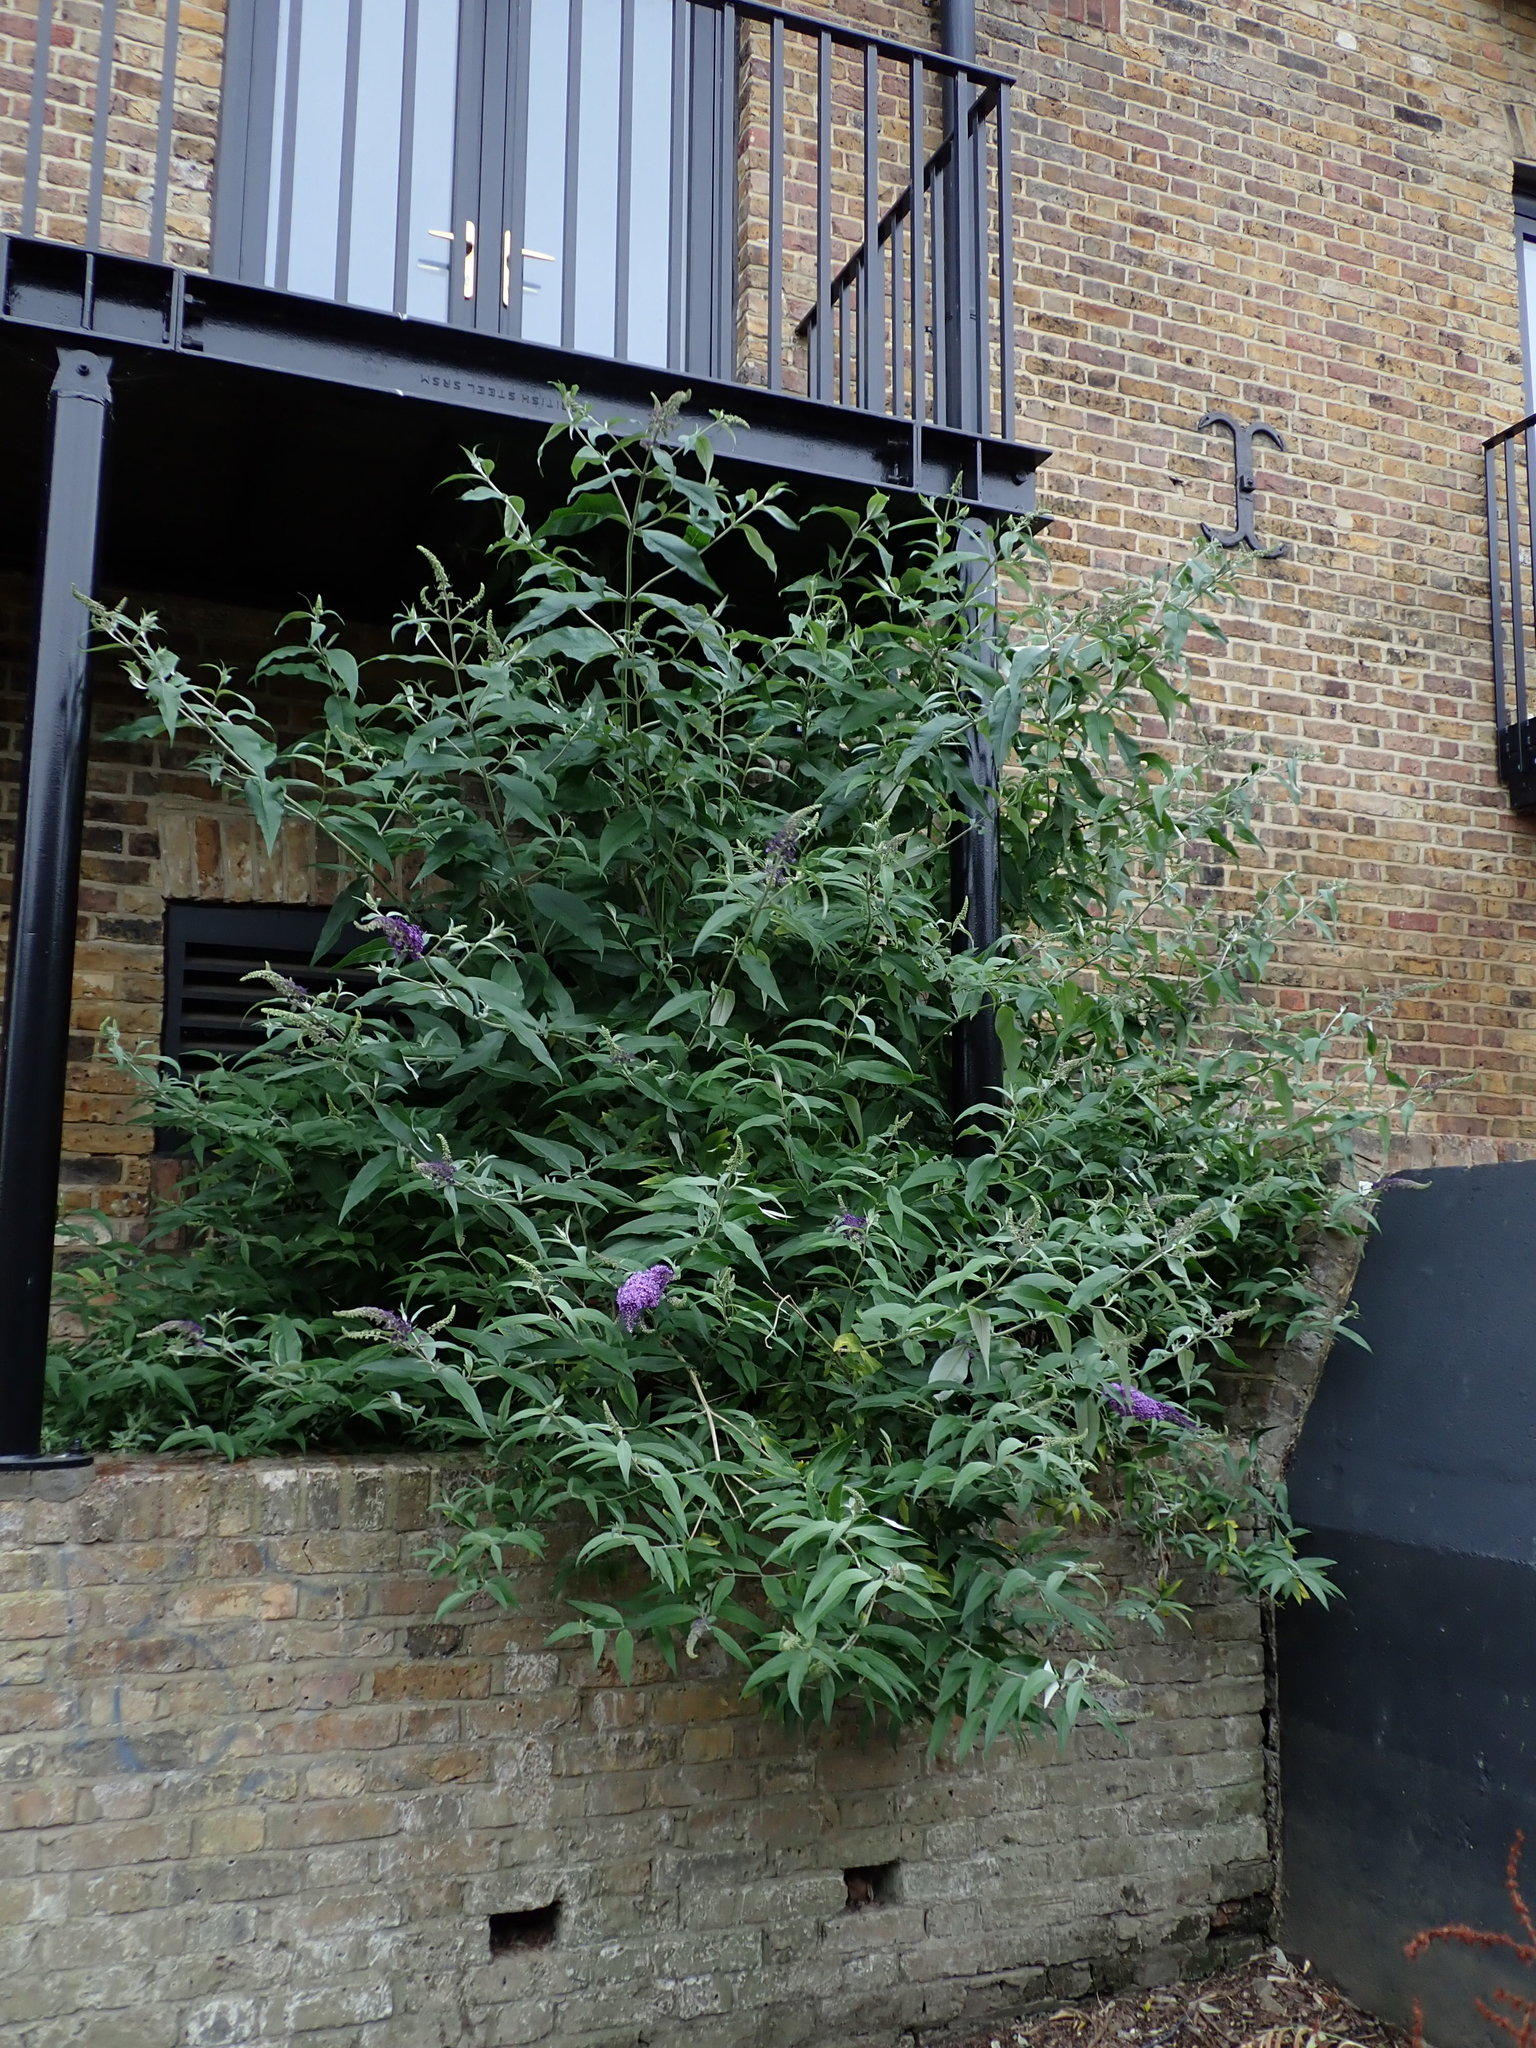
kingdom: Plantae
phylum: Tracheophyta
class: Magnoliopsida
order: Lamiales
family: Scrophulariaceae
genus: Buddleja
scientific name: Buddleja davidii
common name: Butterfly-bush
